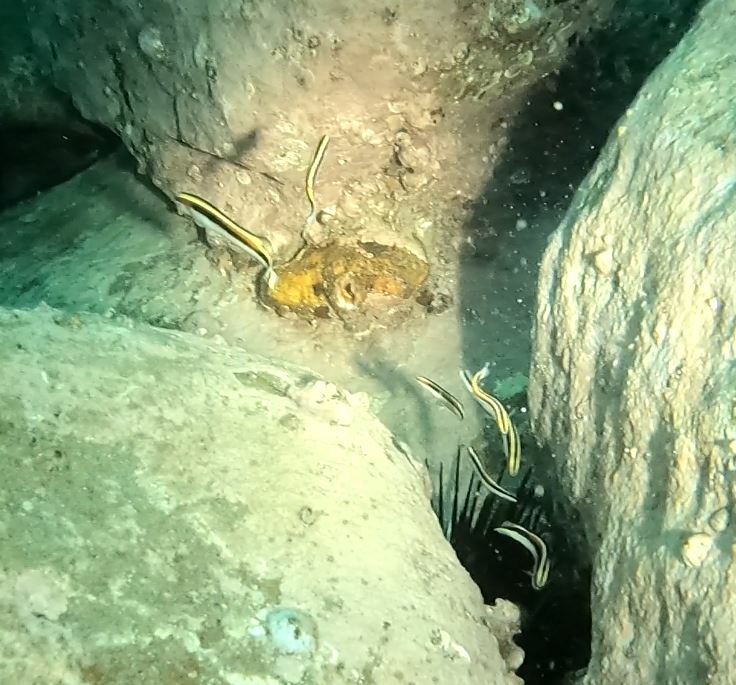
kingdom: Animalia
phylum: Chordata
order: Perciformes
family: Plesiopidae
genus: Trachinops
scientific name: Trachinops taeniatus
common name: Eastern hulafish
